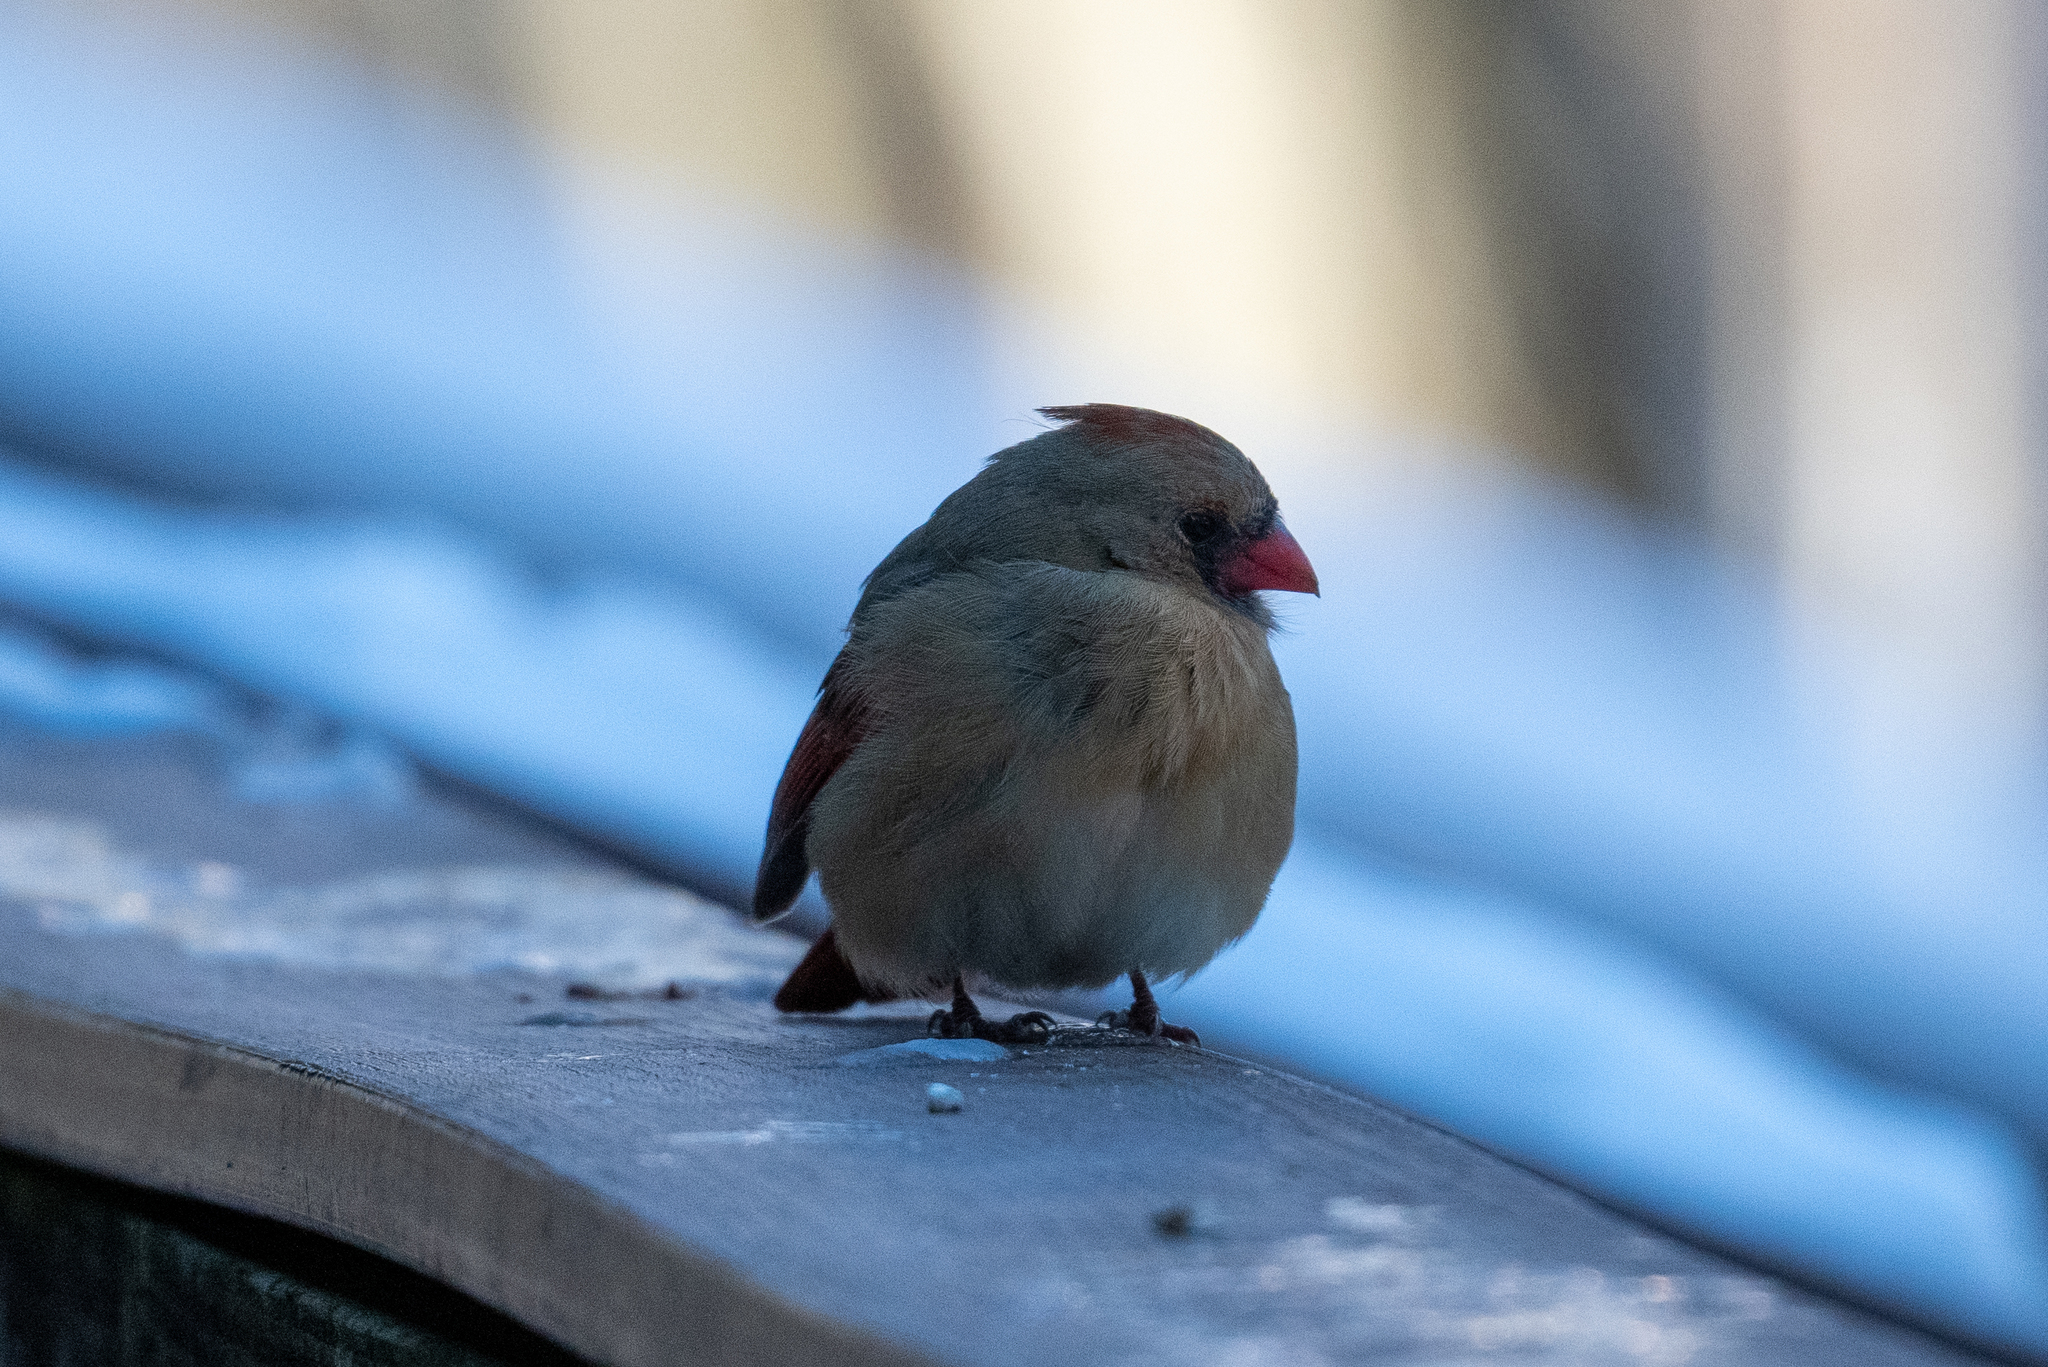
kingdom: Animalia
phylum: Chordata
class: Aves
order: Passeriformes
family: Cardinalidae
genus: Cardinalis
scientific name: Cardinalis cardinalis
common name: Northern cardinal
